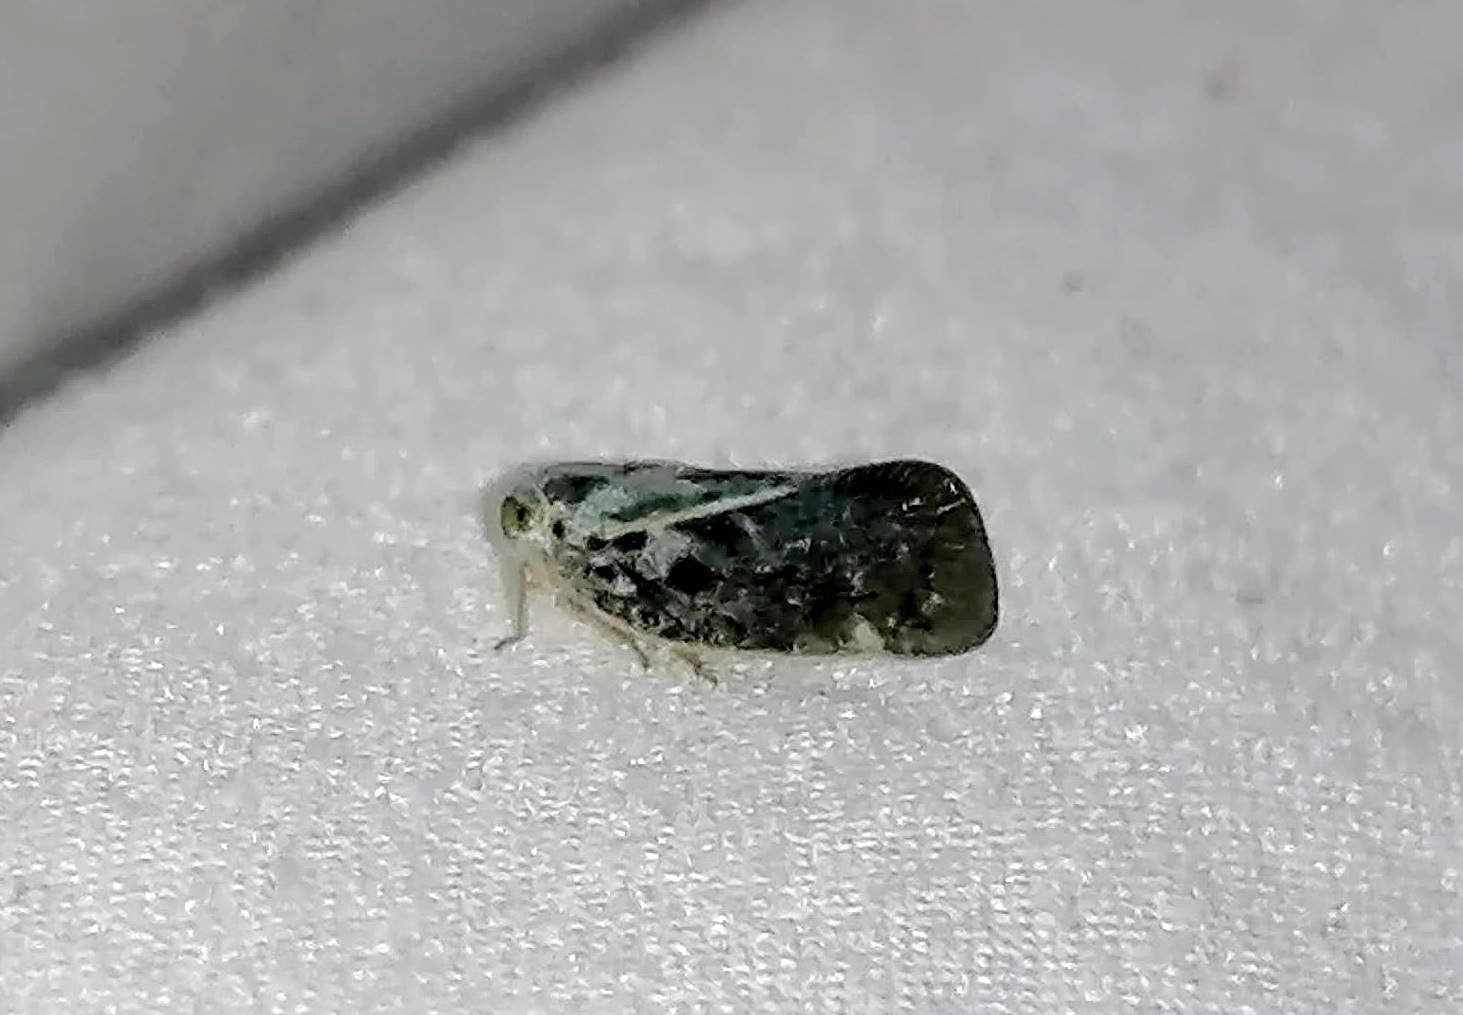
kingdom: Animalia
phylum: Arthropoda
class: Insecta
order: Hemiptera
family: Flatidae
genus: Metcalfa
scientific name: Metcalfa pruinosa
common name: Citrus flatid planthopper
